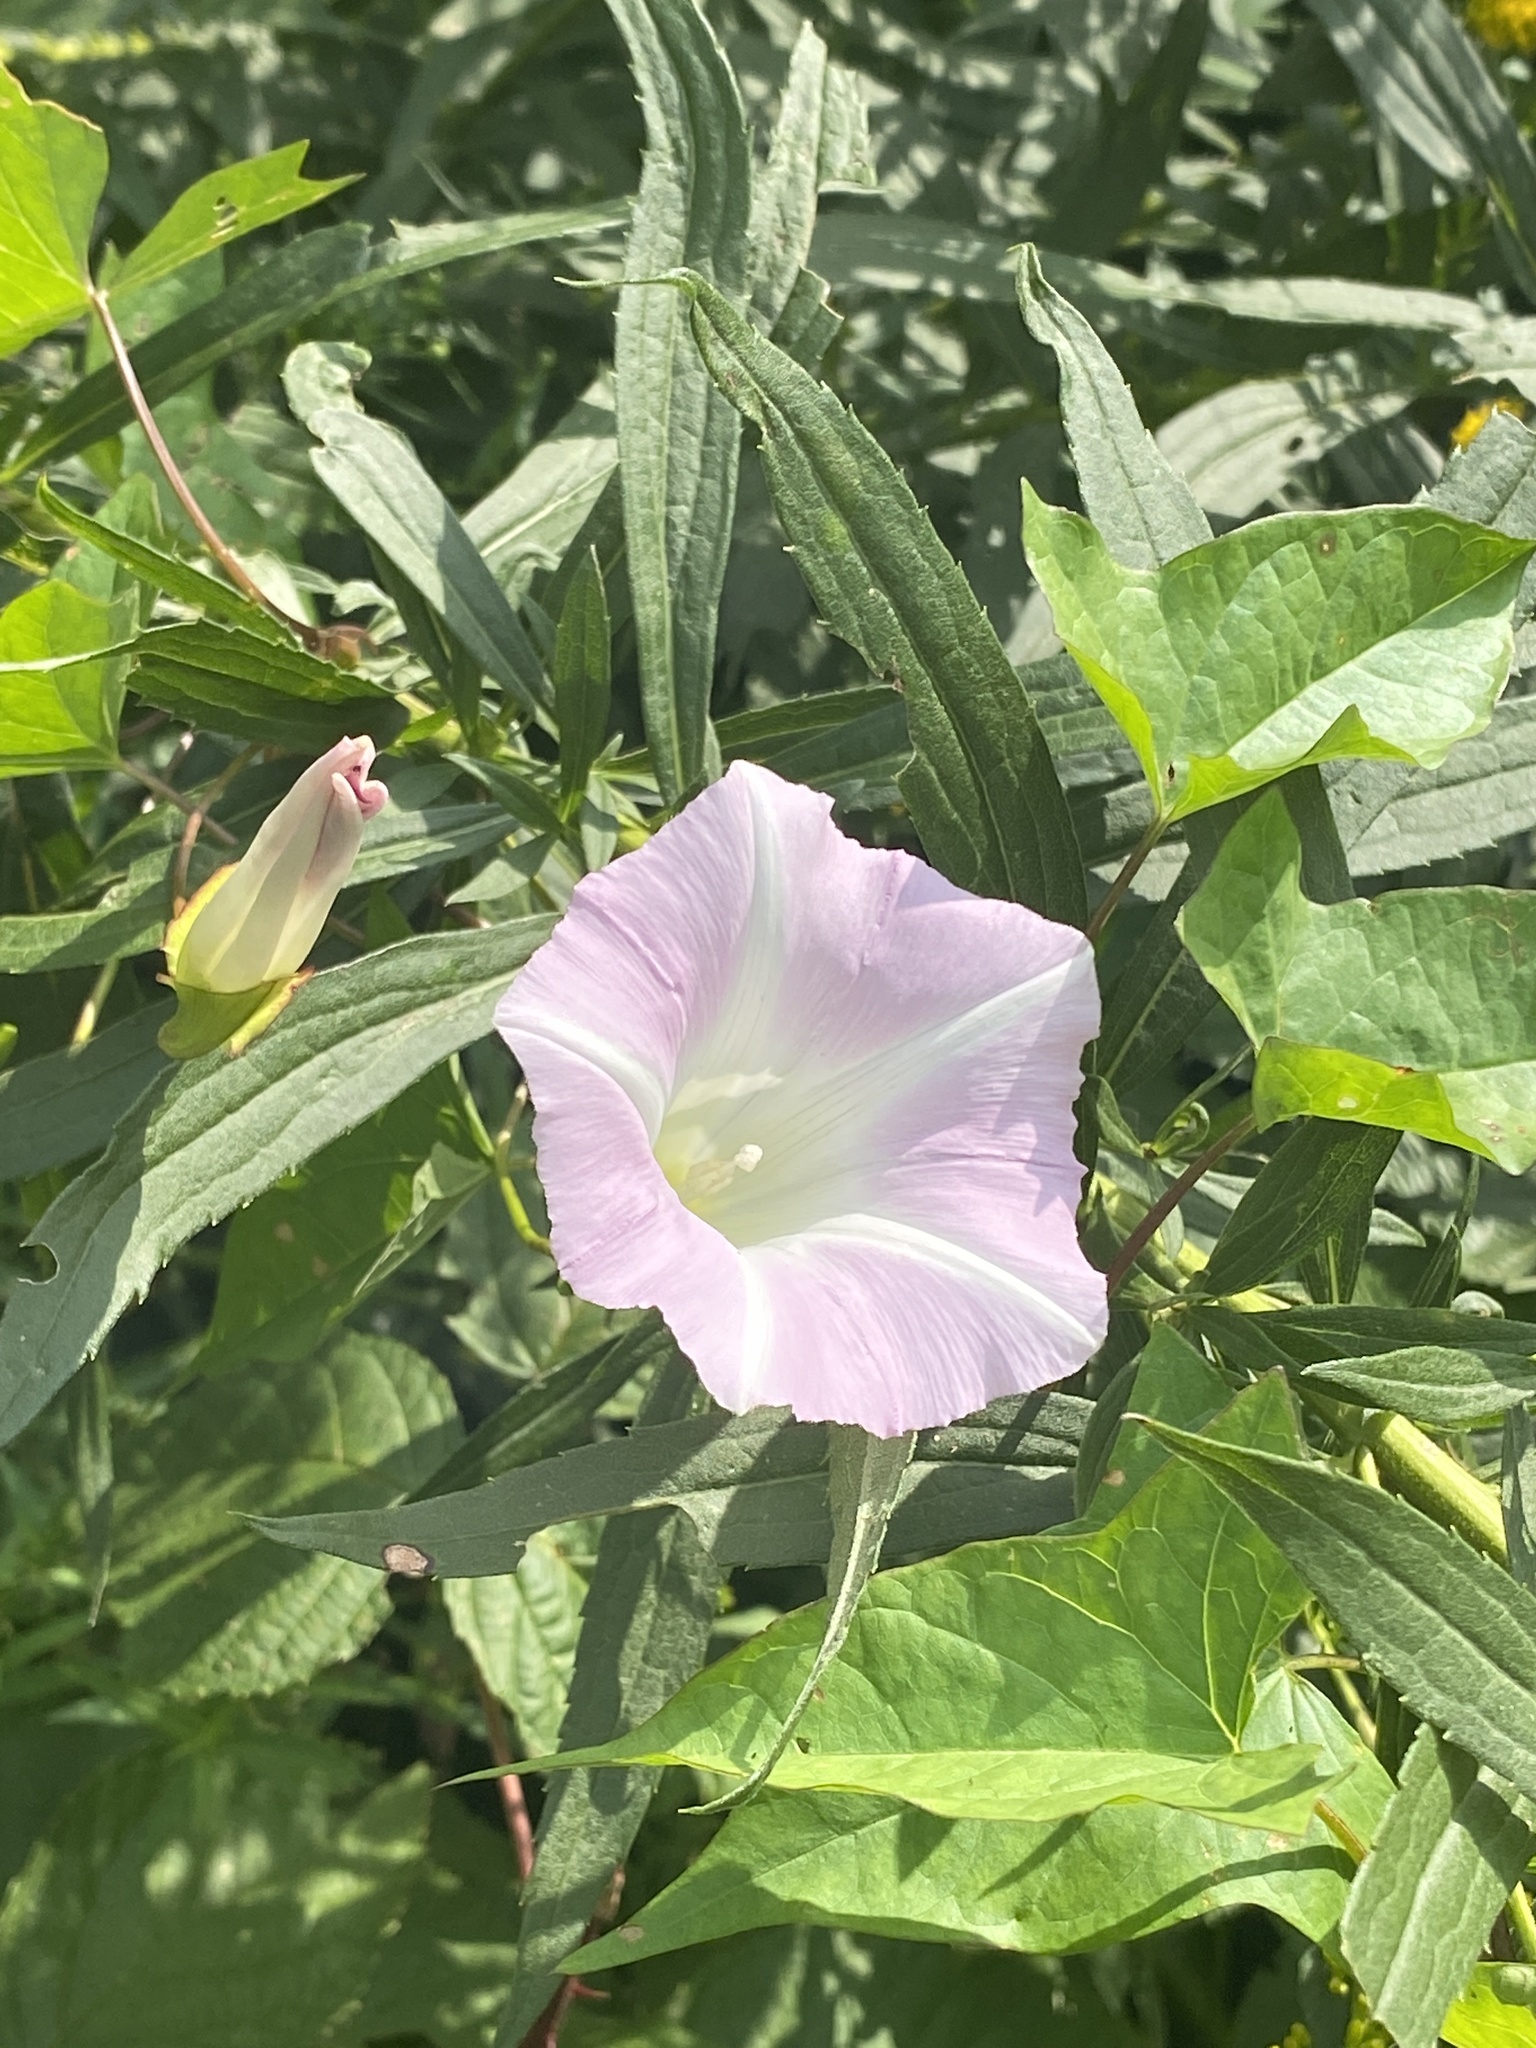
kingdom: Plantae
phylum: Tracheophyta
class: Magnoliopsida
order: Solanales
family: Convolvulaceae
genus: Calystegia
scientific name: Calystegia sepium
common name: Hedge bindweed
